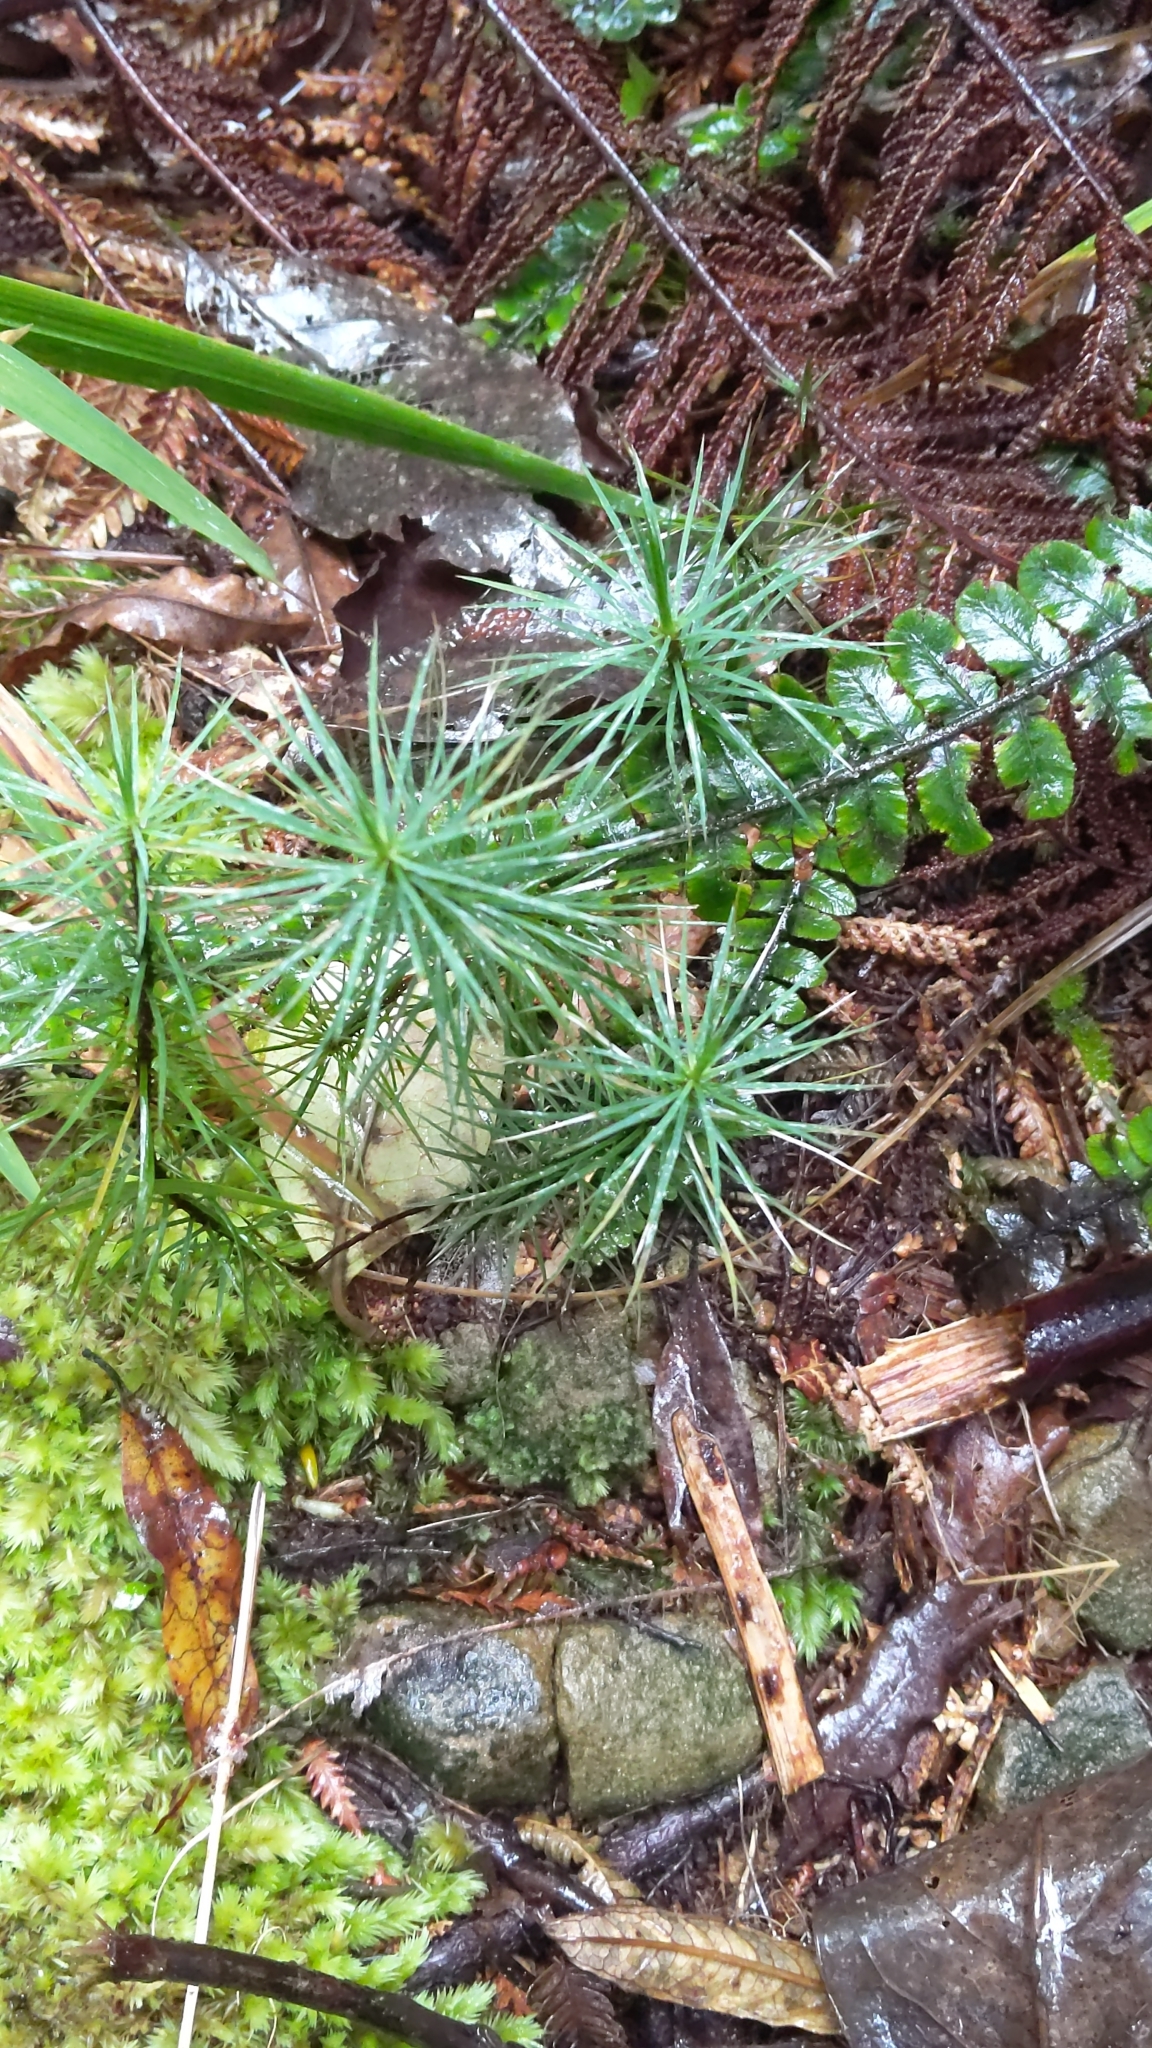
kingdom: Plantae
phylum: Bryophyta
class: Polytrichopsida
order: Polytrichales
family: Polytrichaceae
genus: Dawsonia
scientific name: Dawsonia superba
